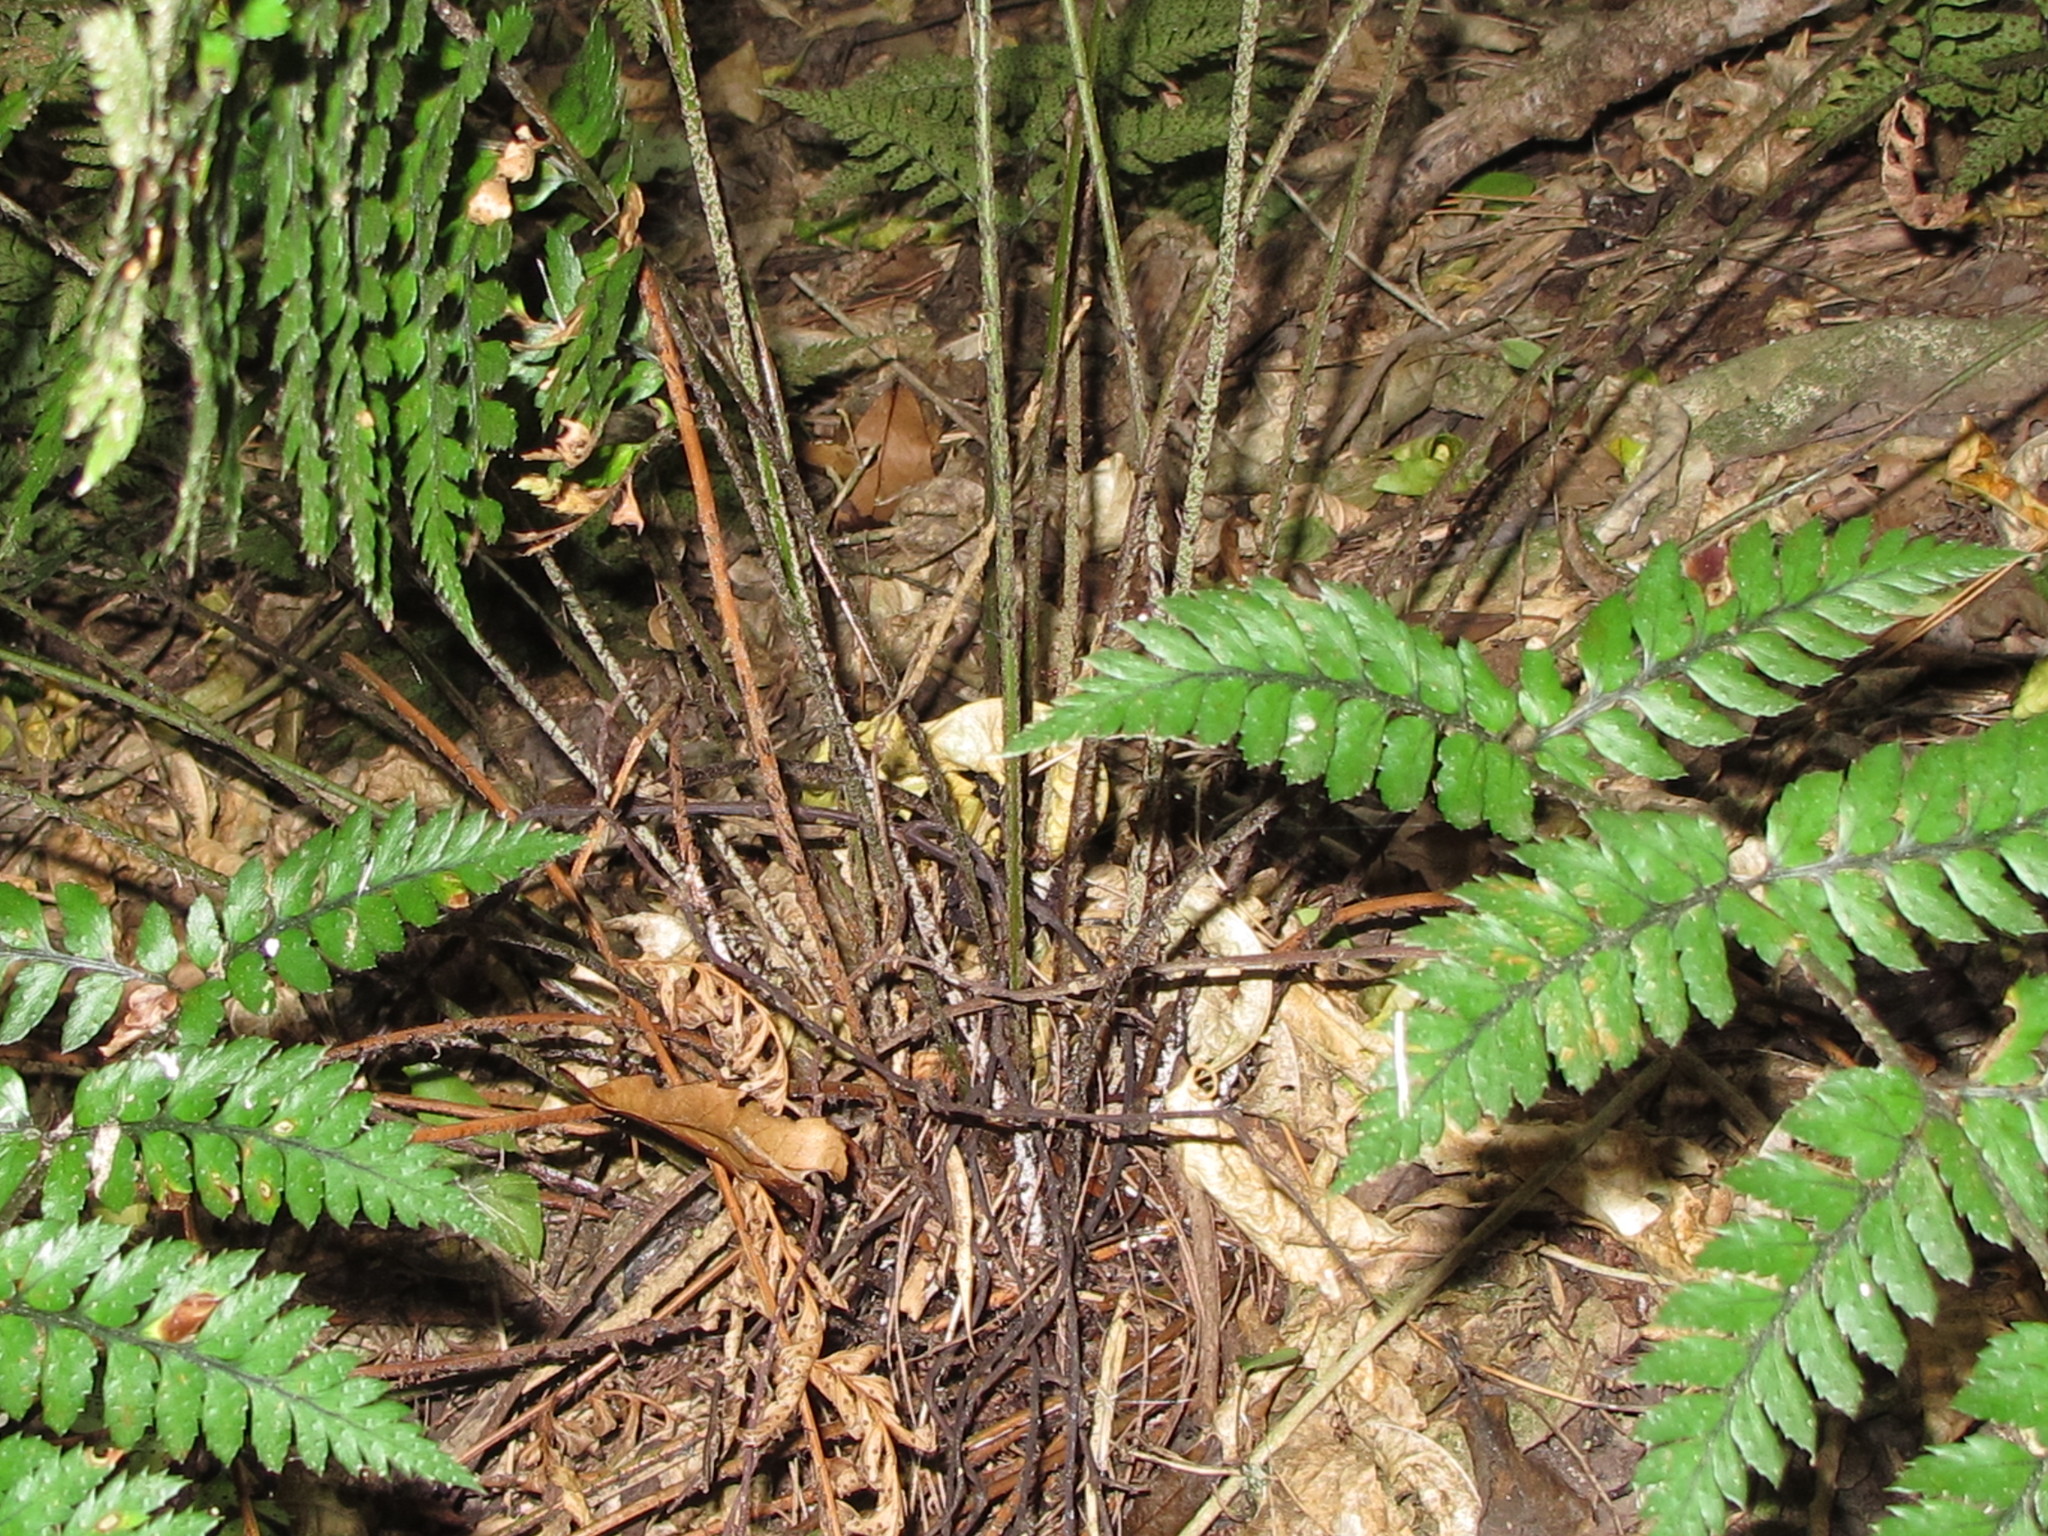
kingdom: Plantae
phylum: Tracheophyta
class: Polypodiopsida
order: Polypodiales
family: Dryopteridaceae
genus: Polystichum
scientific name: Polystichum neozelandicum
